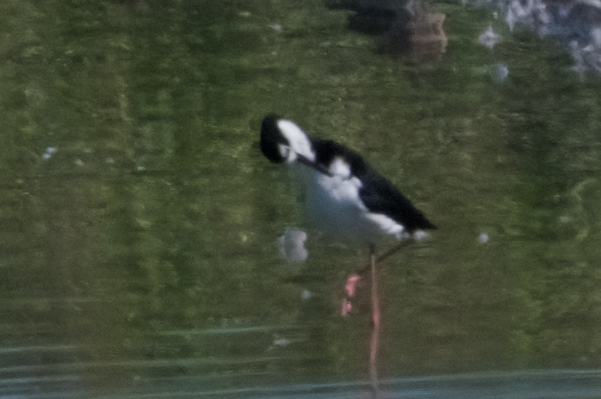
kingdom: Animalia
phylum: Chordata
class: Aves
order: Charadriiformes
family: Recurvirostridae
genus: Himantopus
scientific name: Himantopus mexicanus
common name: Black-necked stilt
